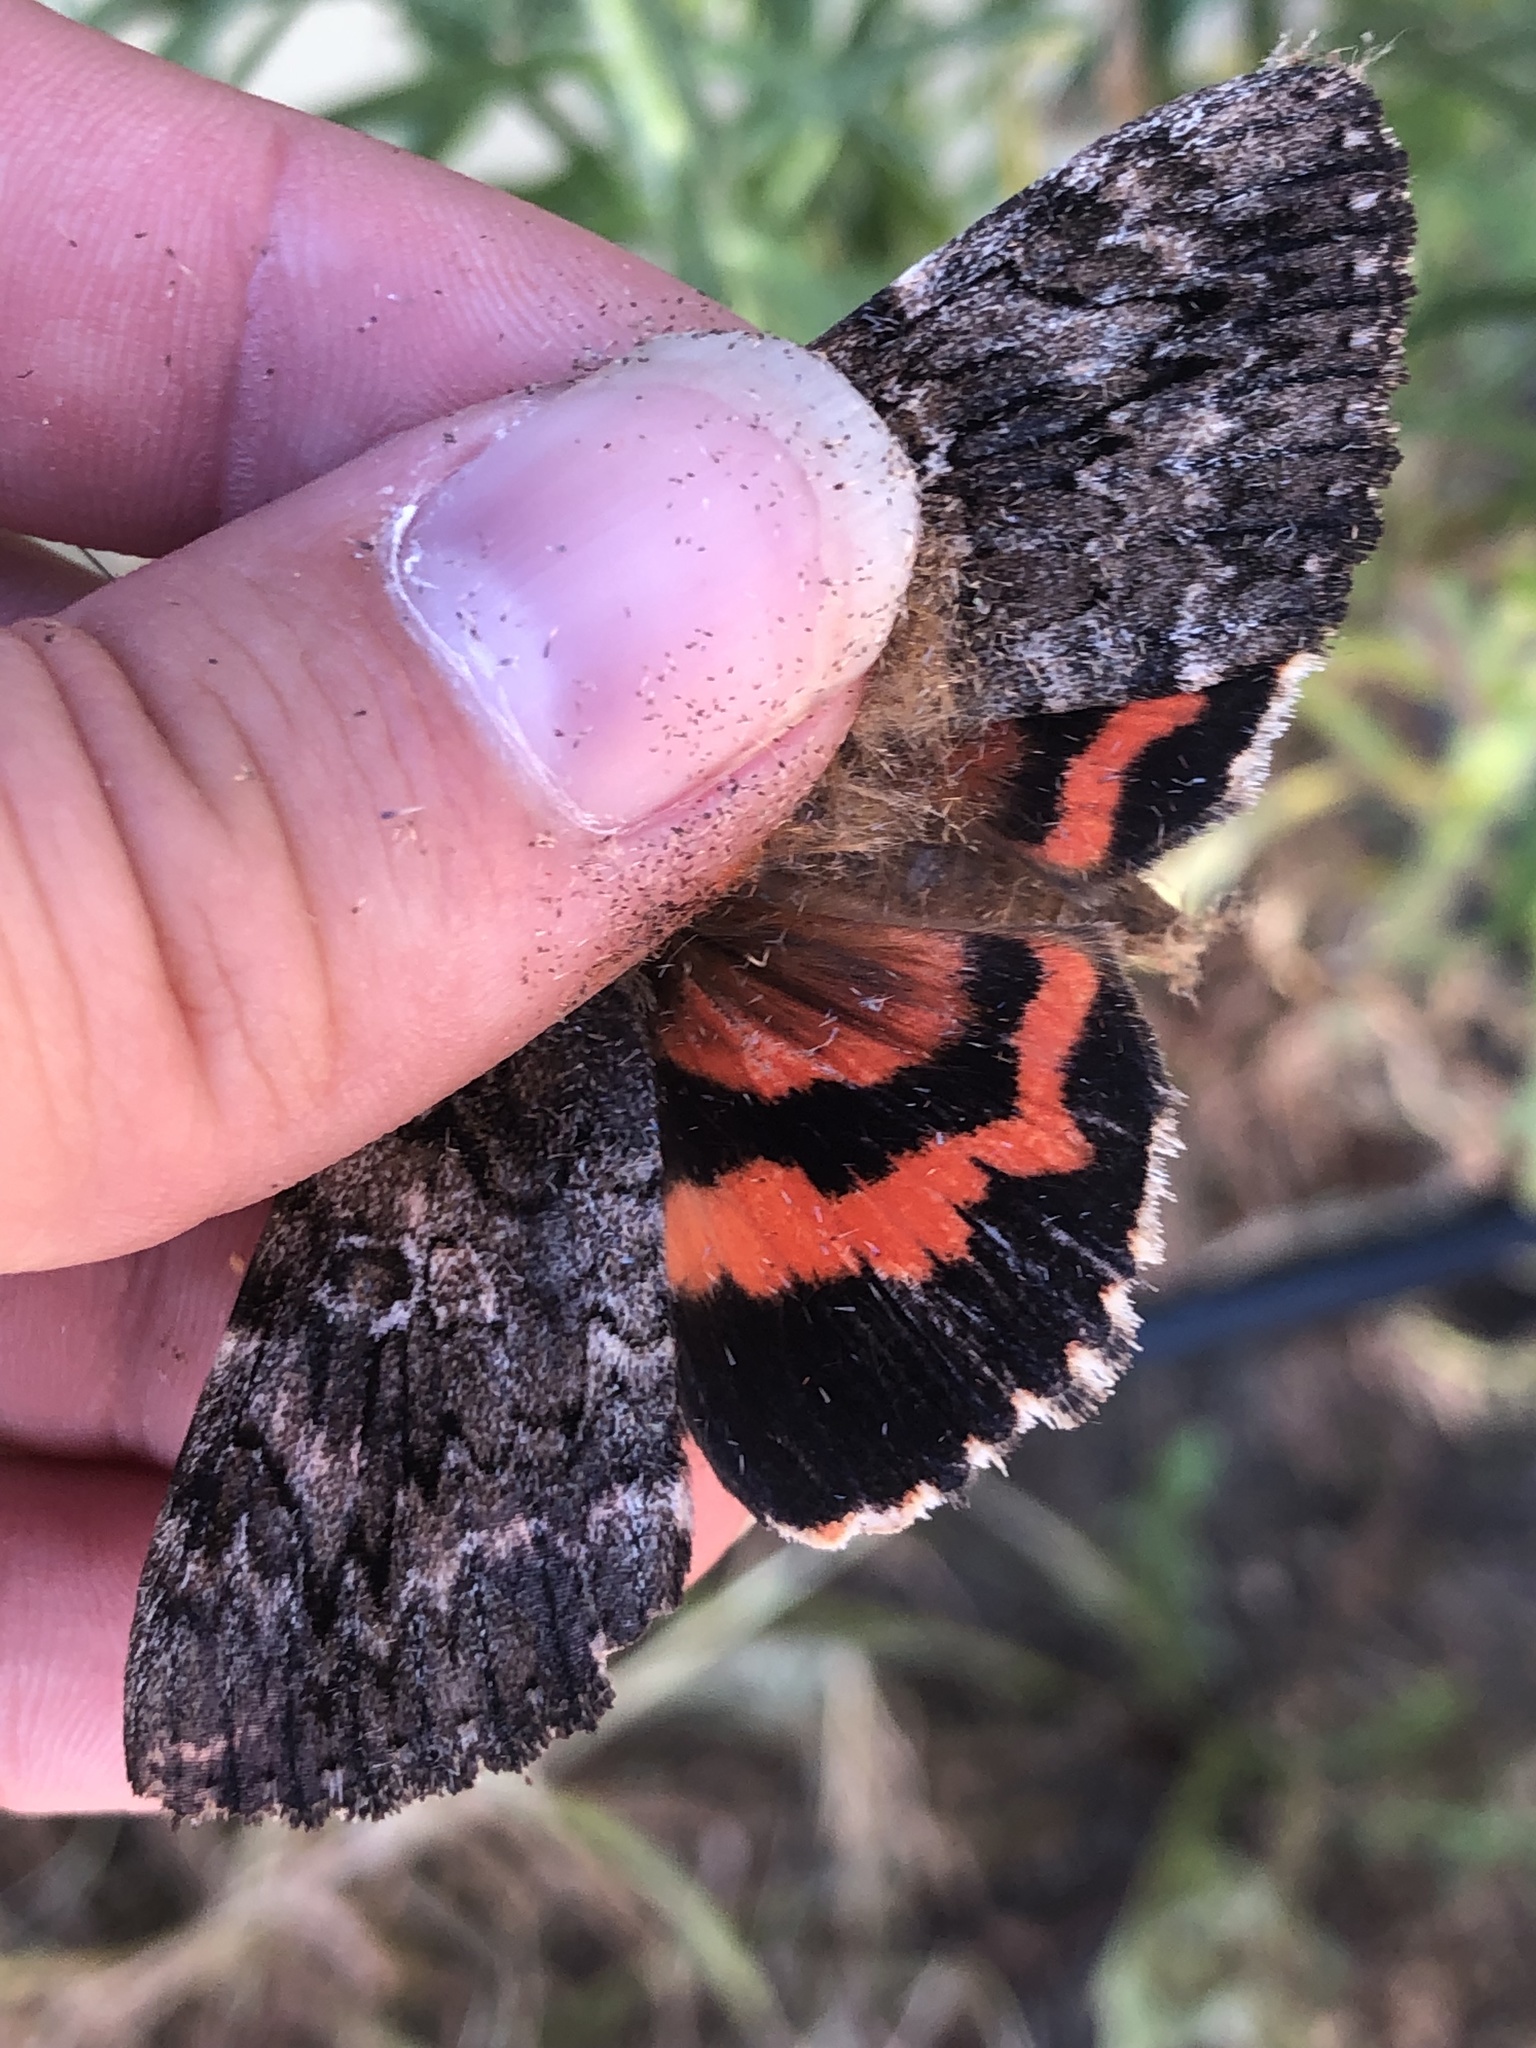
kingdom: Animalia
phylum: Arthropoda
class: Insecta
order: Lepidoptera
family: Erebidae
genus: Catocala
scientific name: Catocala ilia
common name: Ilia underwing
